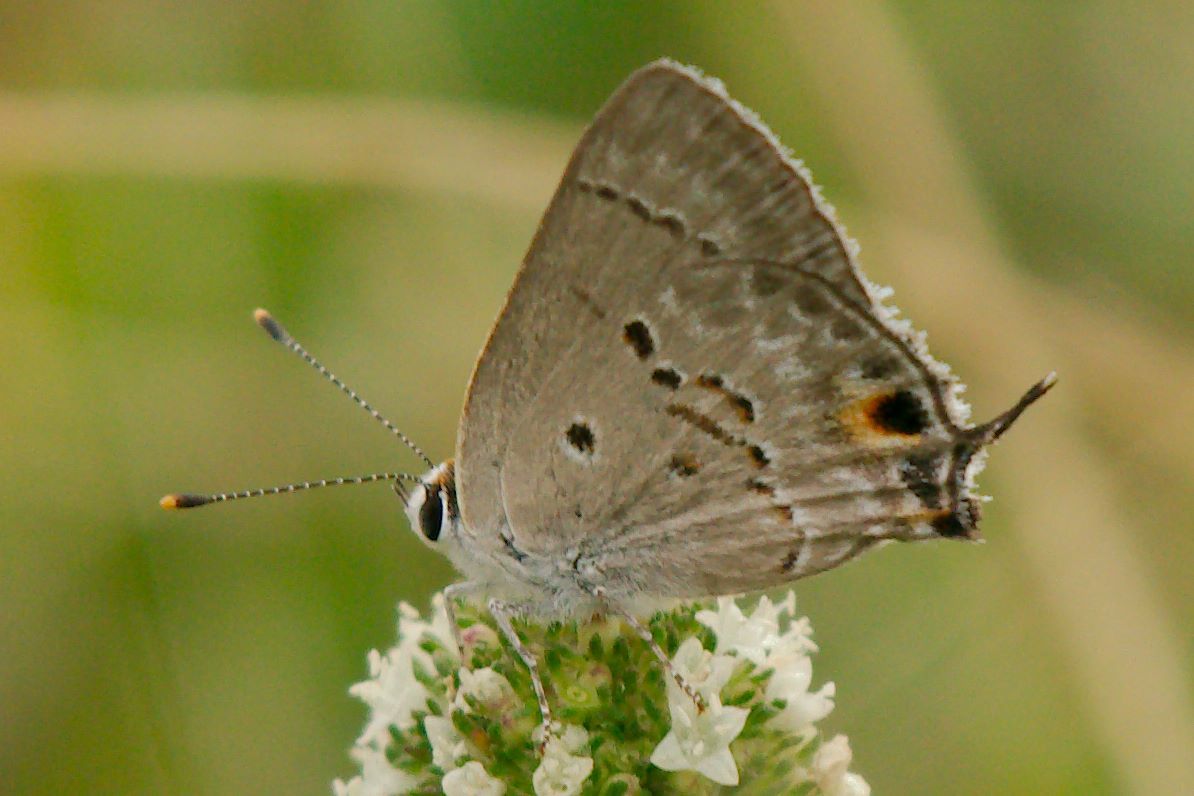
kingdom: Animalia
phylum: Arthropoda
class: Insecta
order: Lepidoptera
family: Lycaenidae
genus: Callicista
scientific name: Callicista columella
